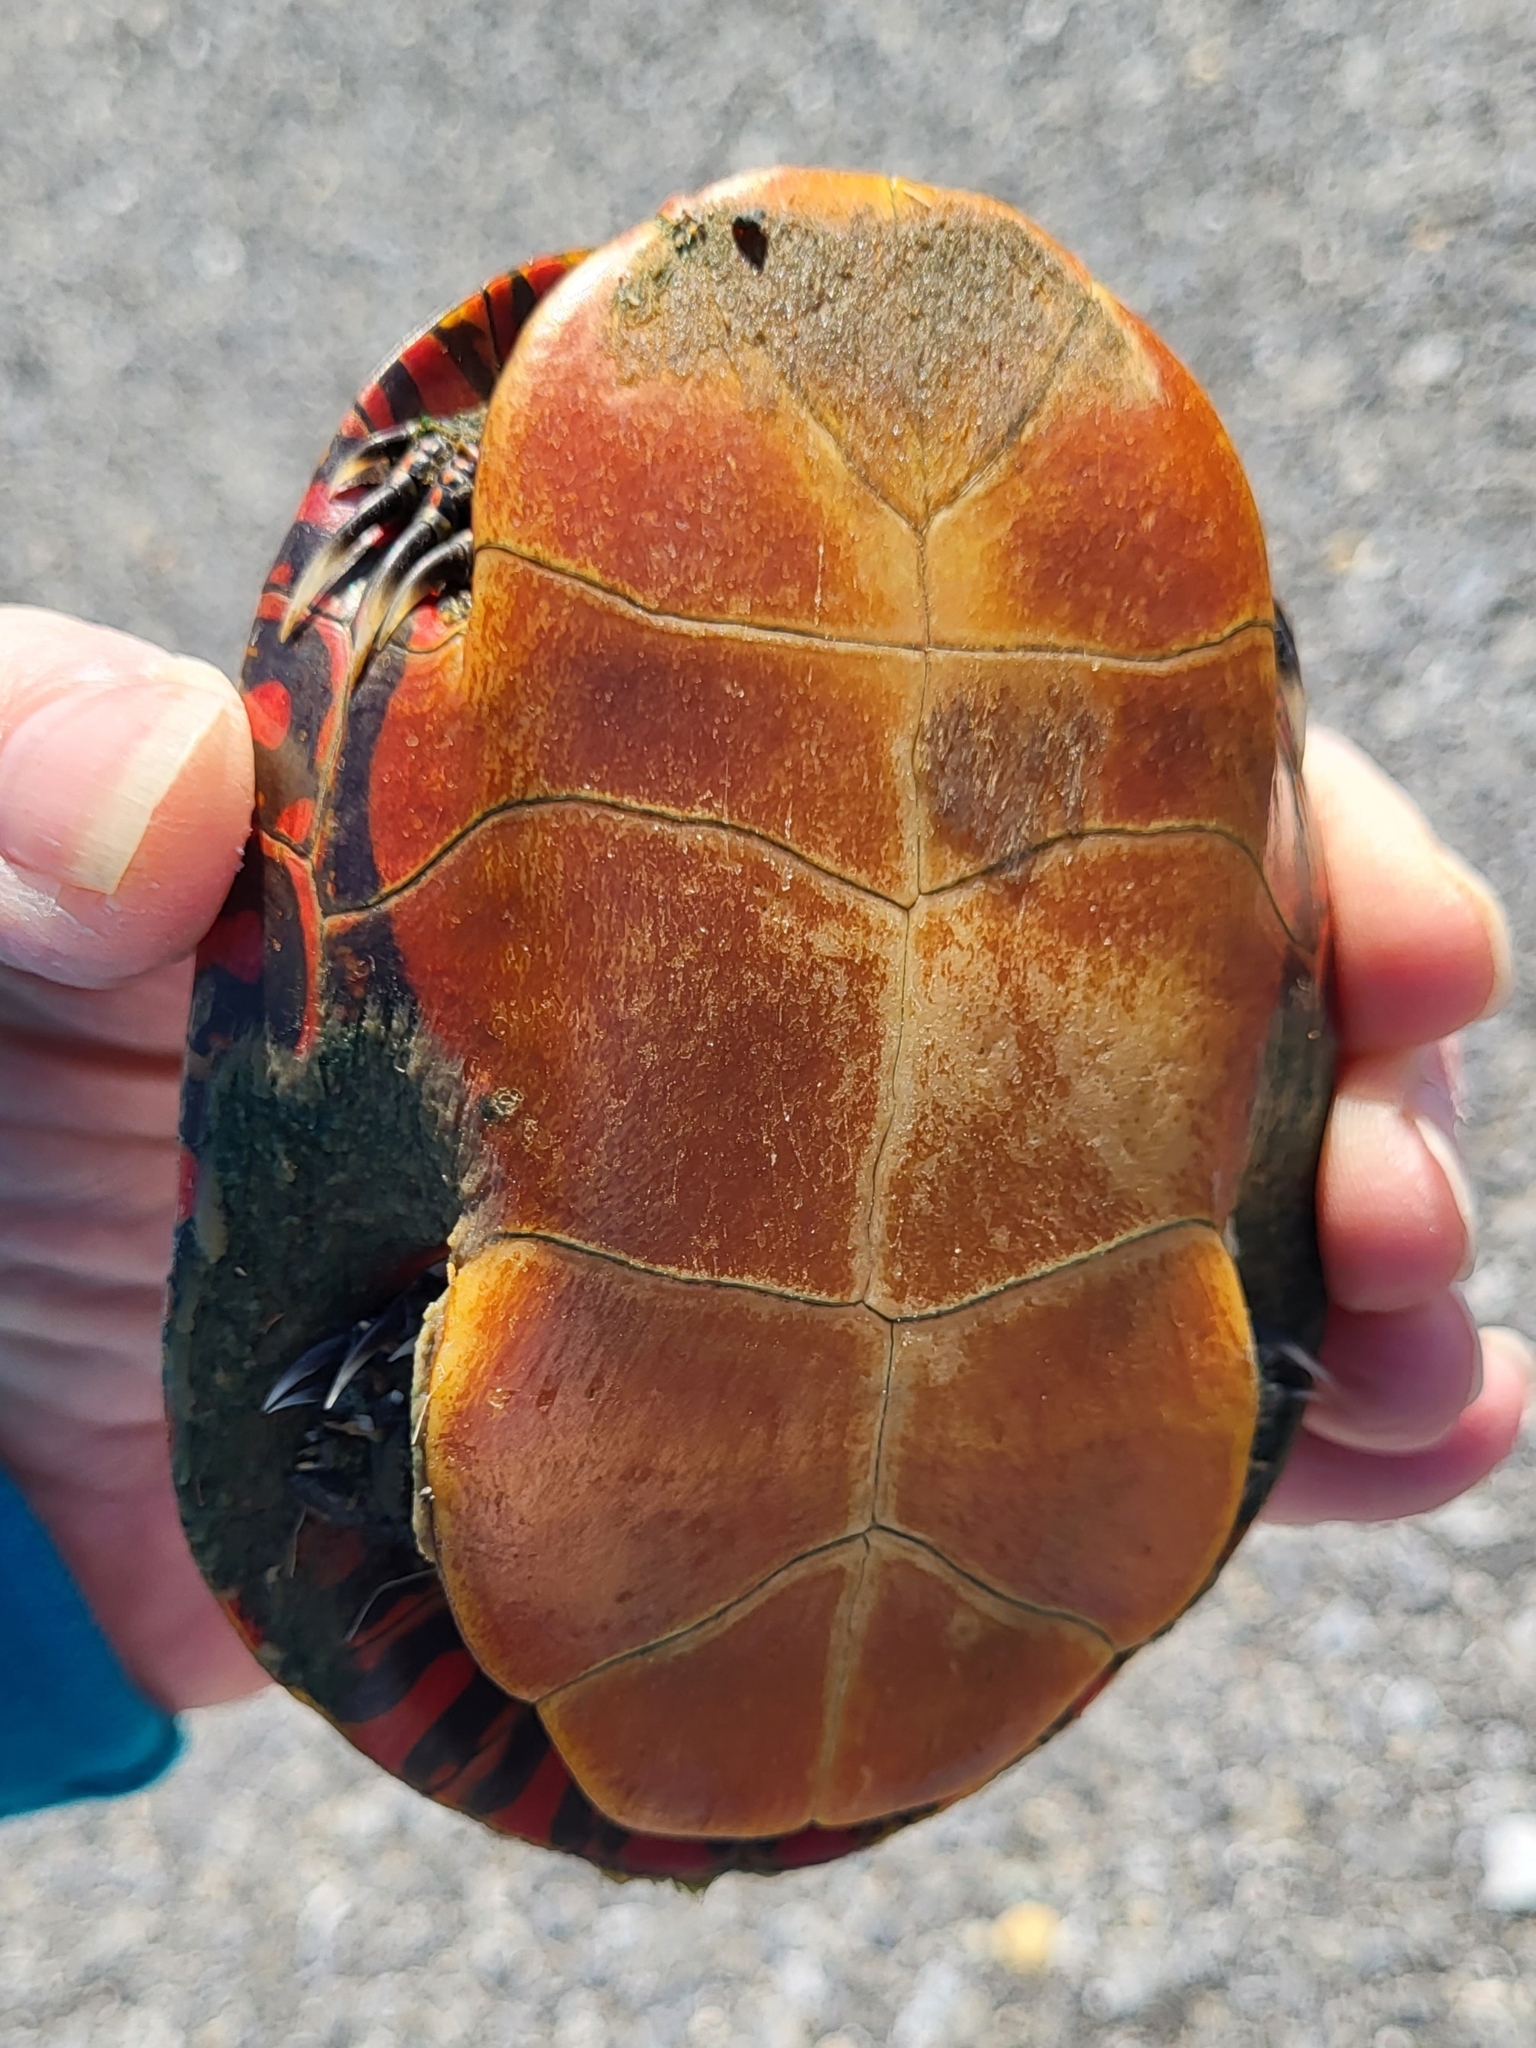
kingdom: Animalia
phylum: Chordata
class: Testudines
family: Emydidae
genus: Chrysemys
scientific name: Chrysemys picta
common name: Painted turtle
